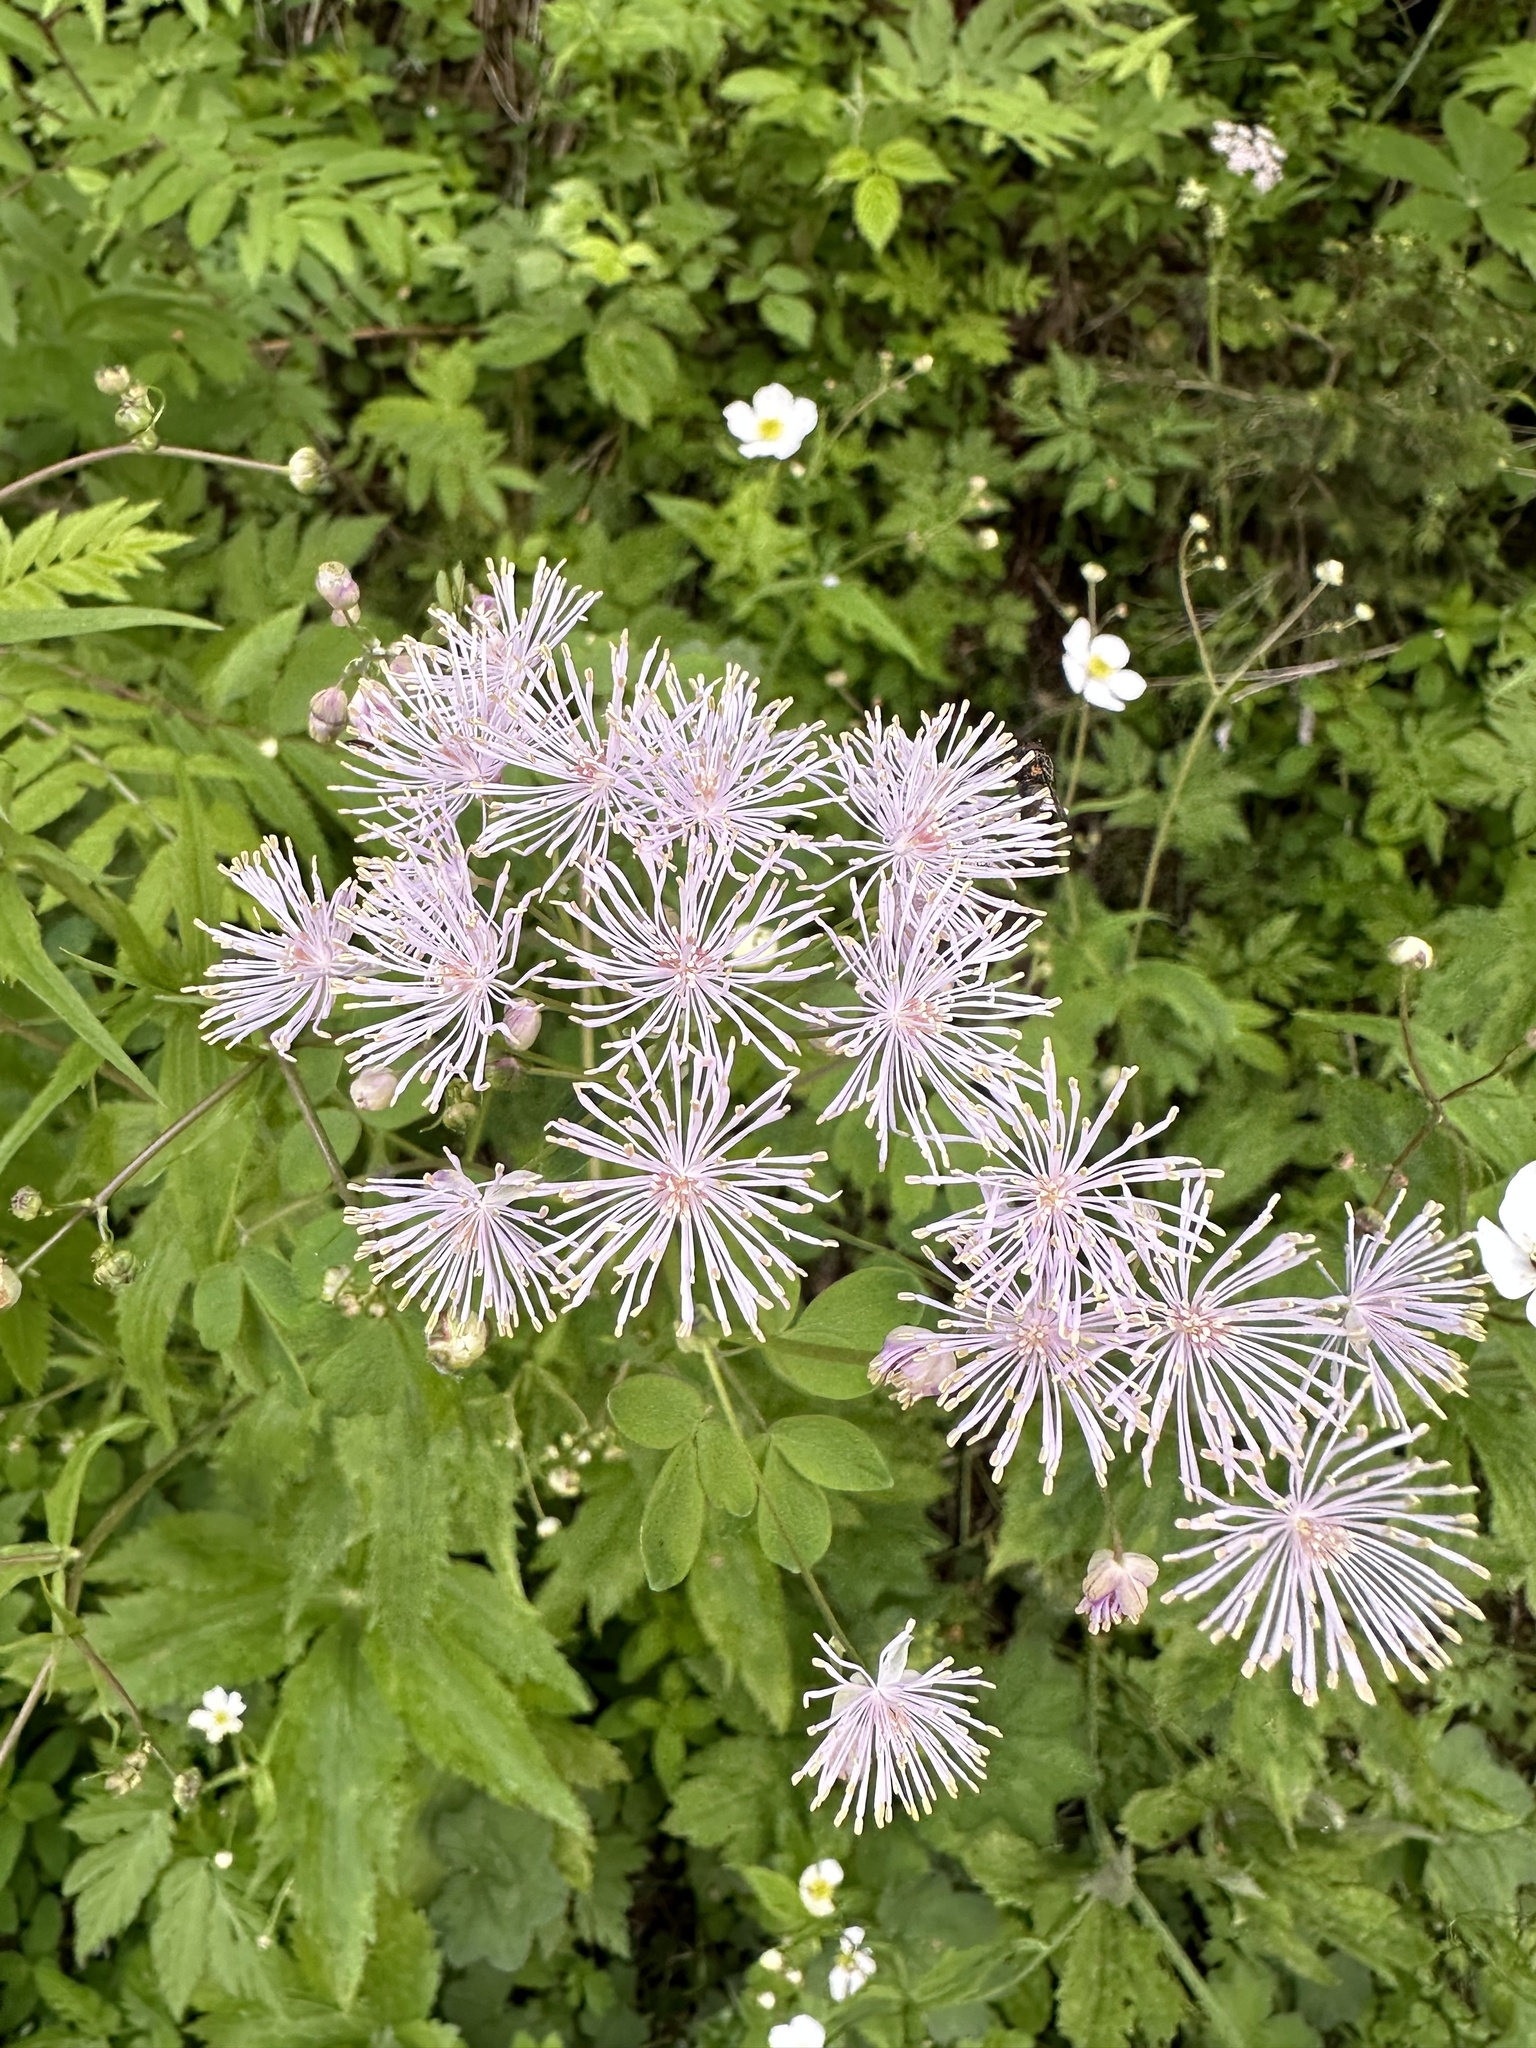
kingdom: Plantae
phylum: Tracheophyta
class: Magnoliopsida
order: Ranunculales
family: Ranunculaceae
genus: Thalictrum
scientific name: Thalictrum aquilegiifolium
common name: French meadow-rue
